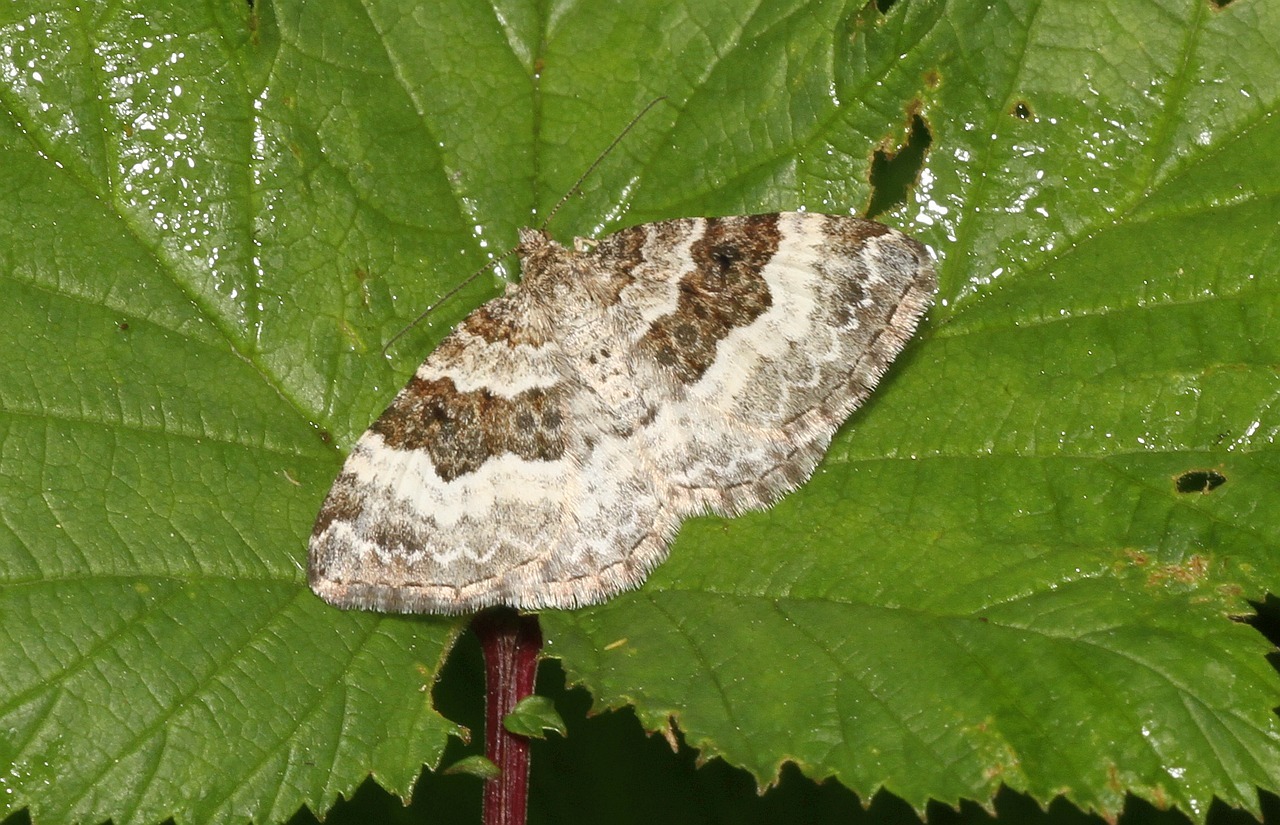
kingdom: Animalia
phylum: Arthropoda
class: Insecta
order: Lepidoptera
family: Geometridae
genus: Epirrhoe
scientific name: Epirrhoe alternata
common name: Common carpet
